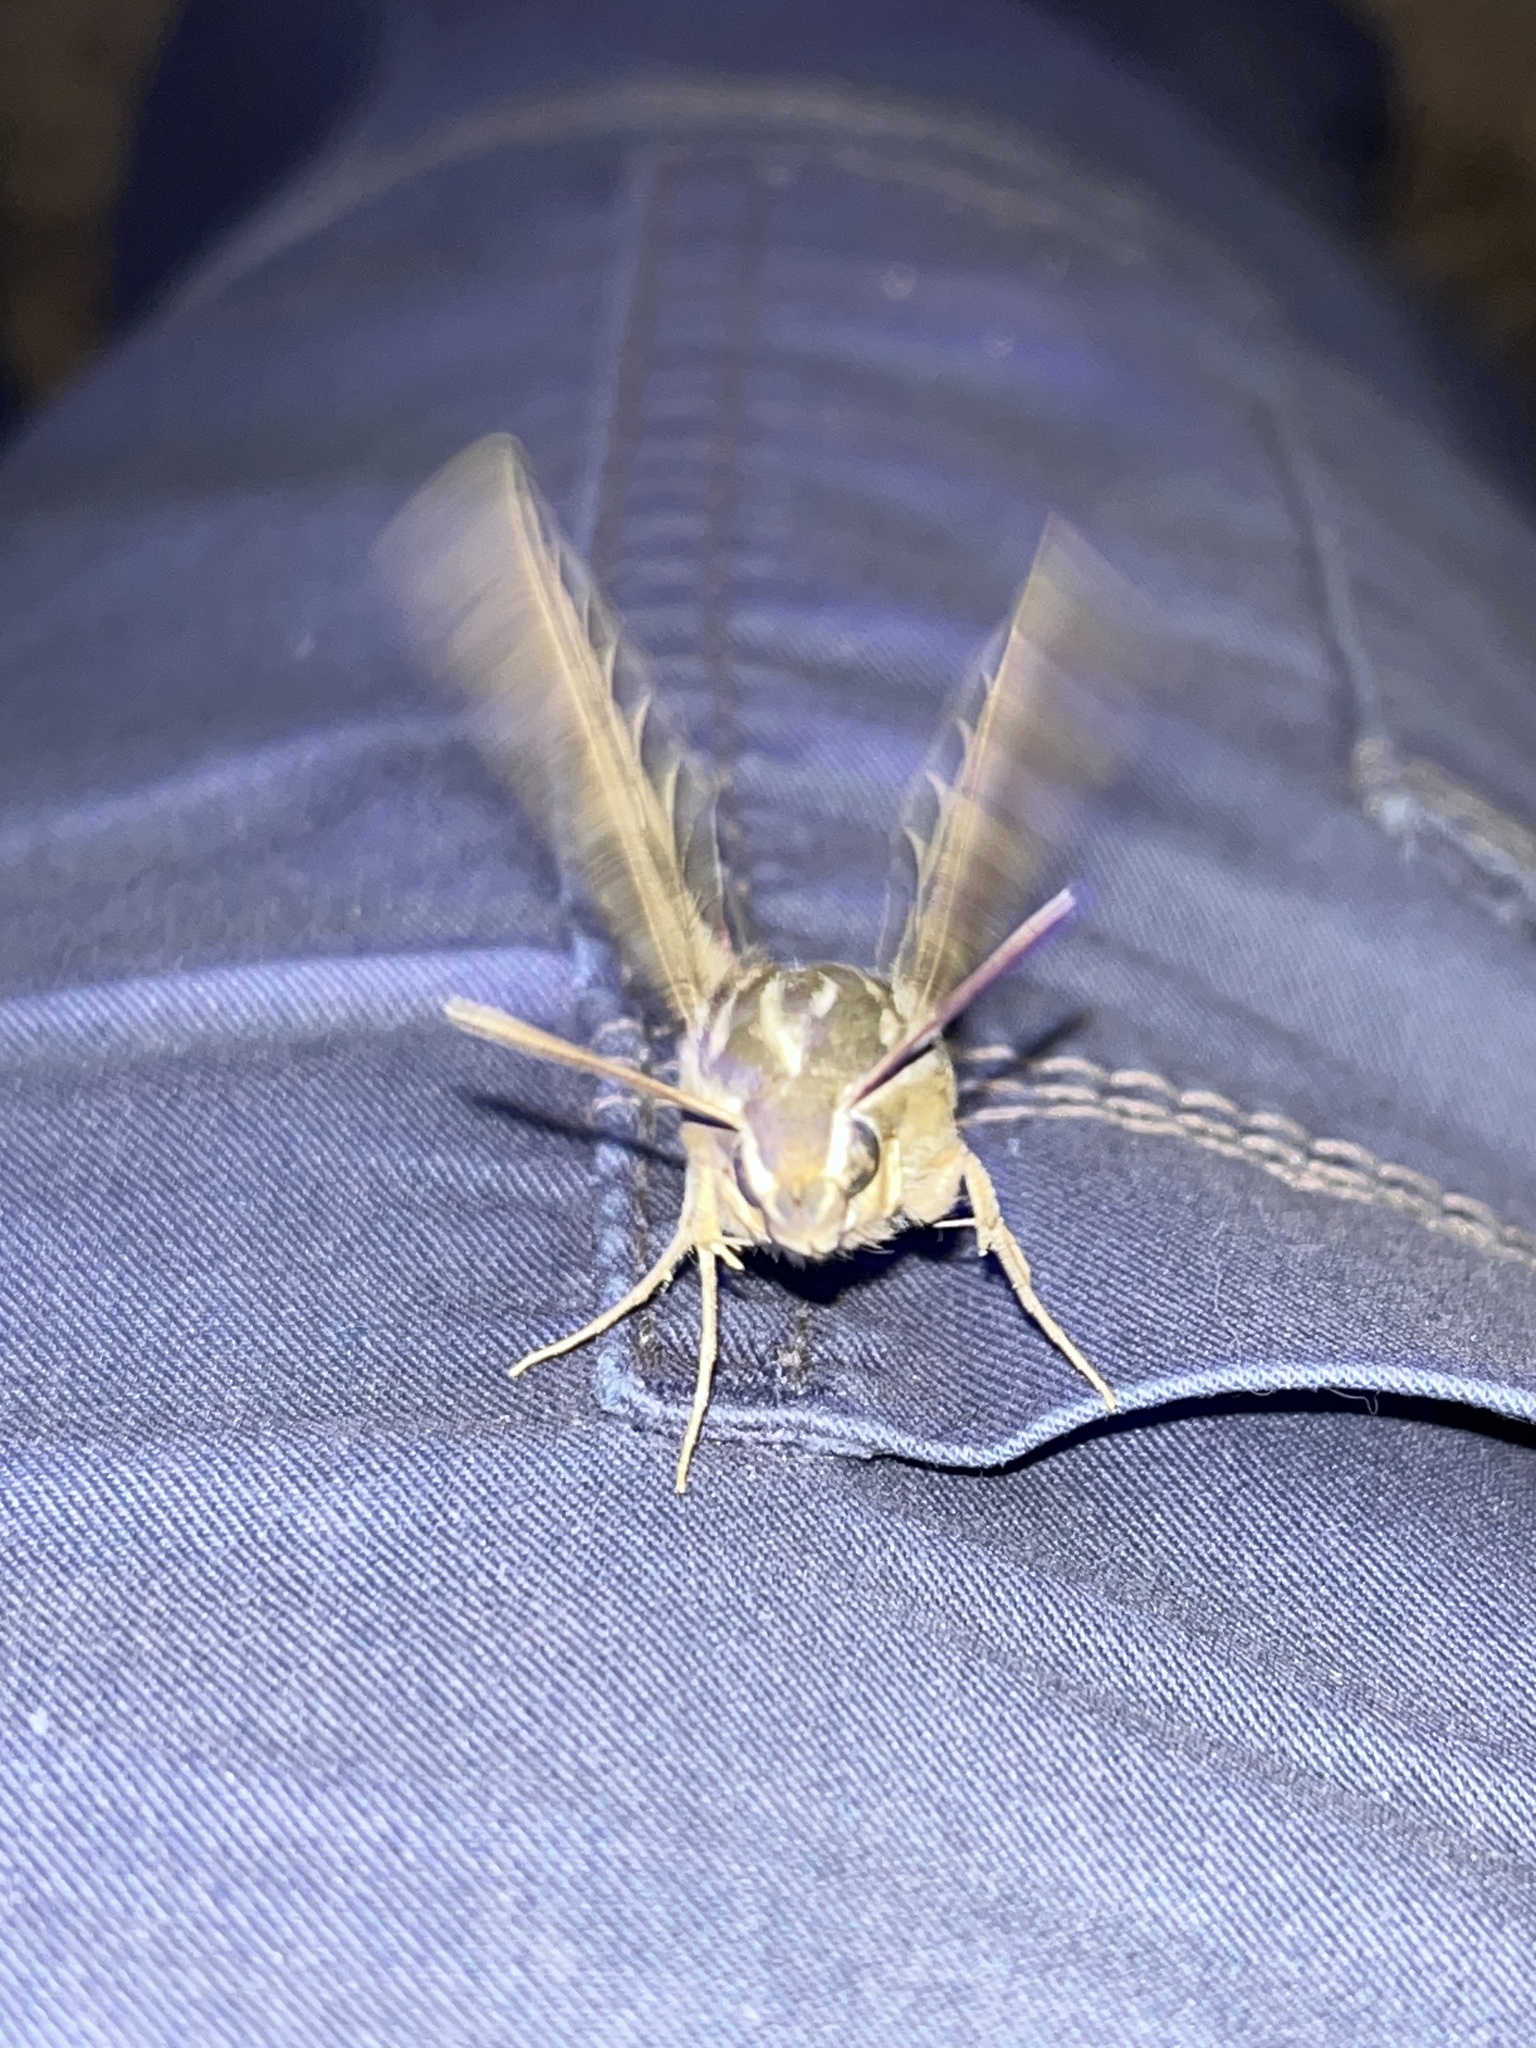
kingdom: Animalia
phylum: Arthropoda
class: Insecta
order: Lepidoptera
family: Sphingidae
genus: Hyles
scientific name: Hyles lineata
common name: White-lined sphinx
